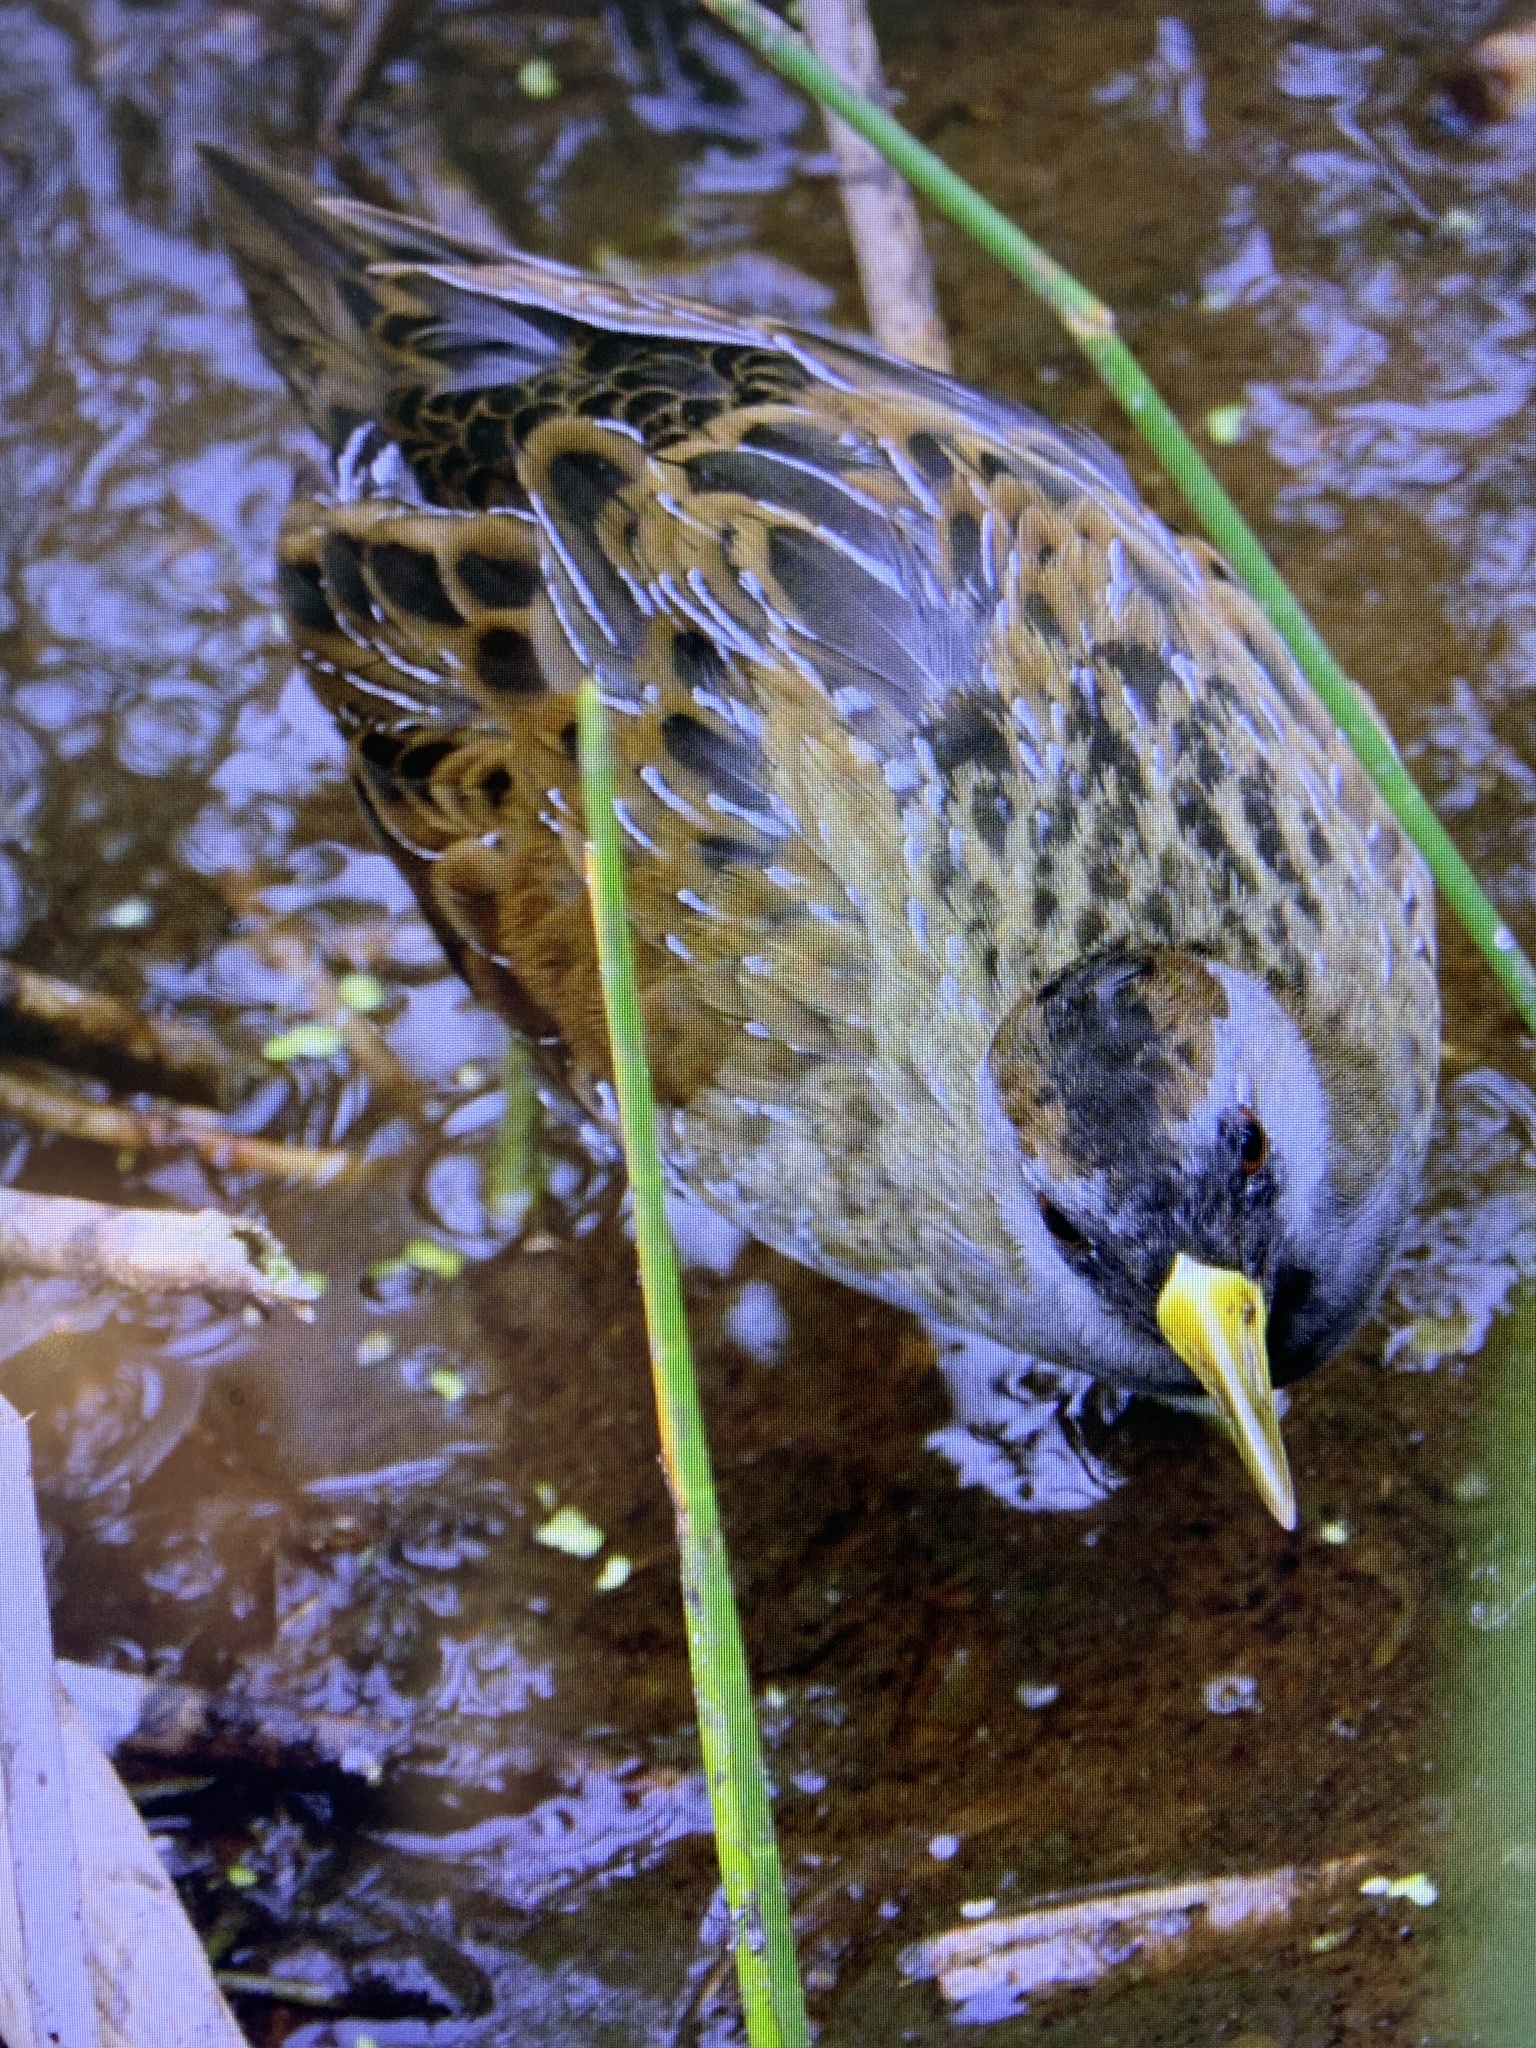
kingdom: Animalia
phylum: Chordata
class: Aves
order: Gruiformes
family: Rallidae
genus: Porzana
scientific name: Porzana carolina
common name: Sora
